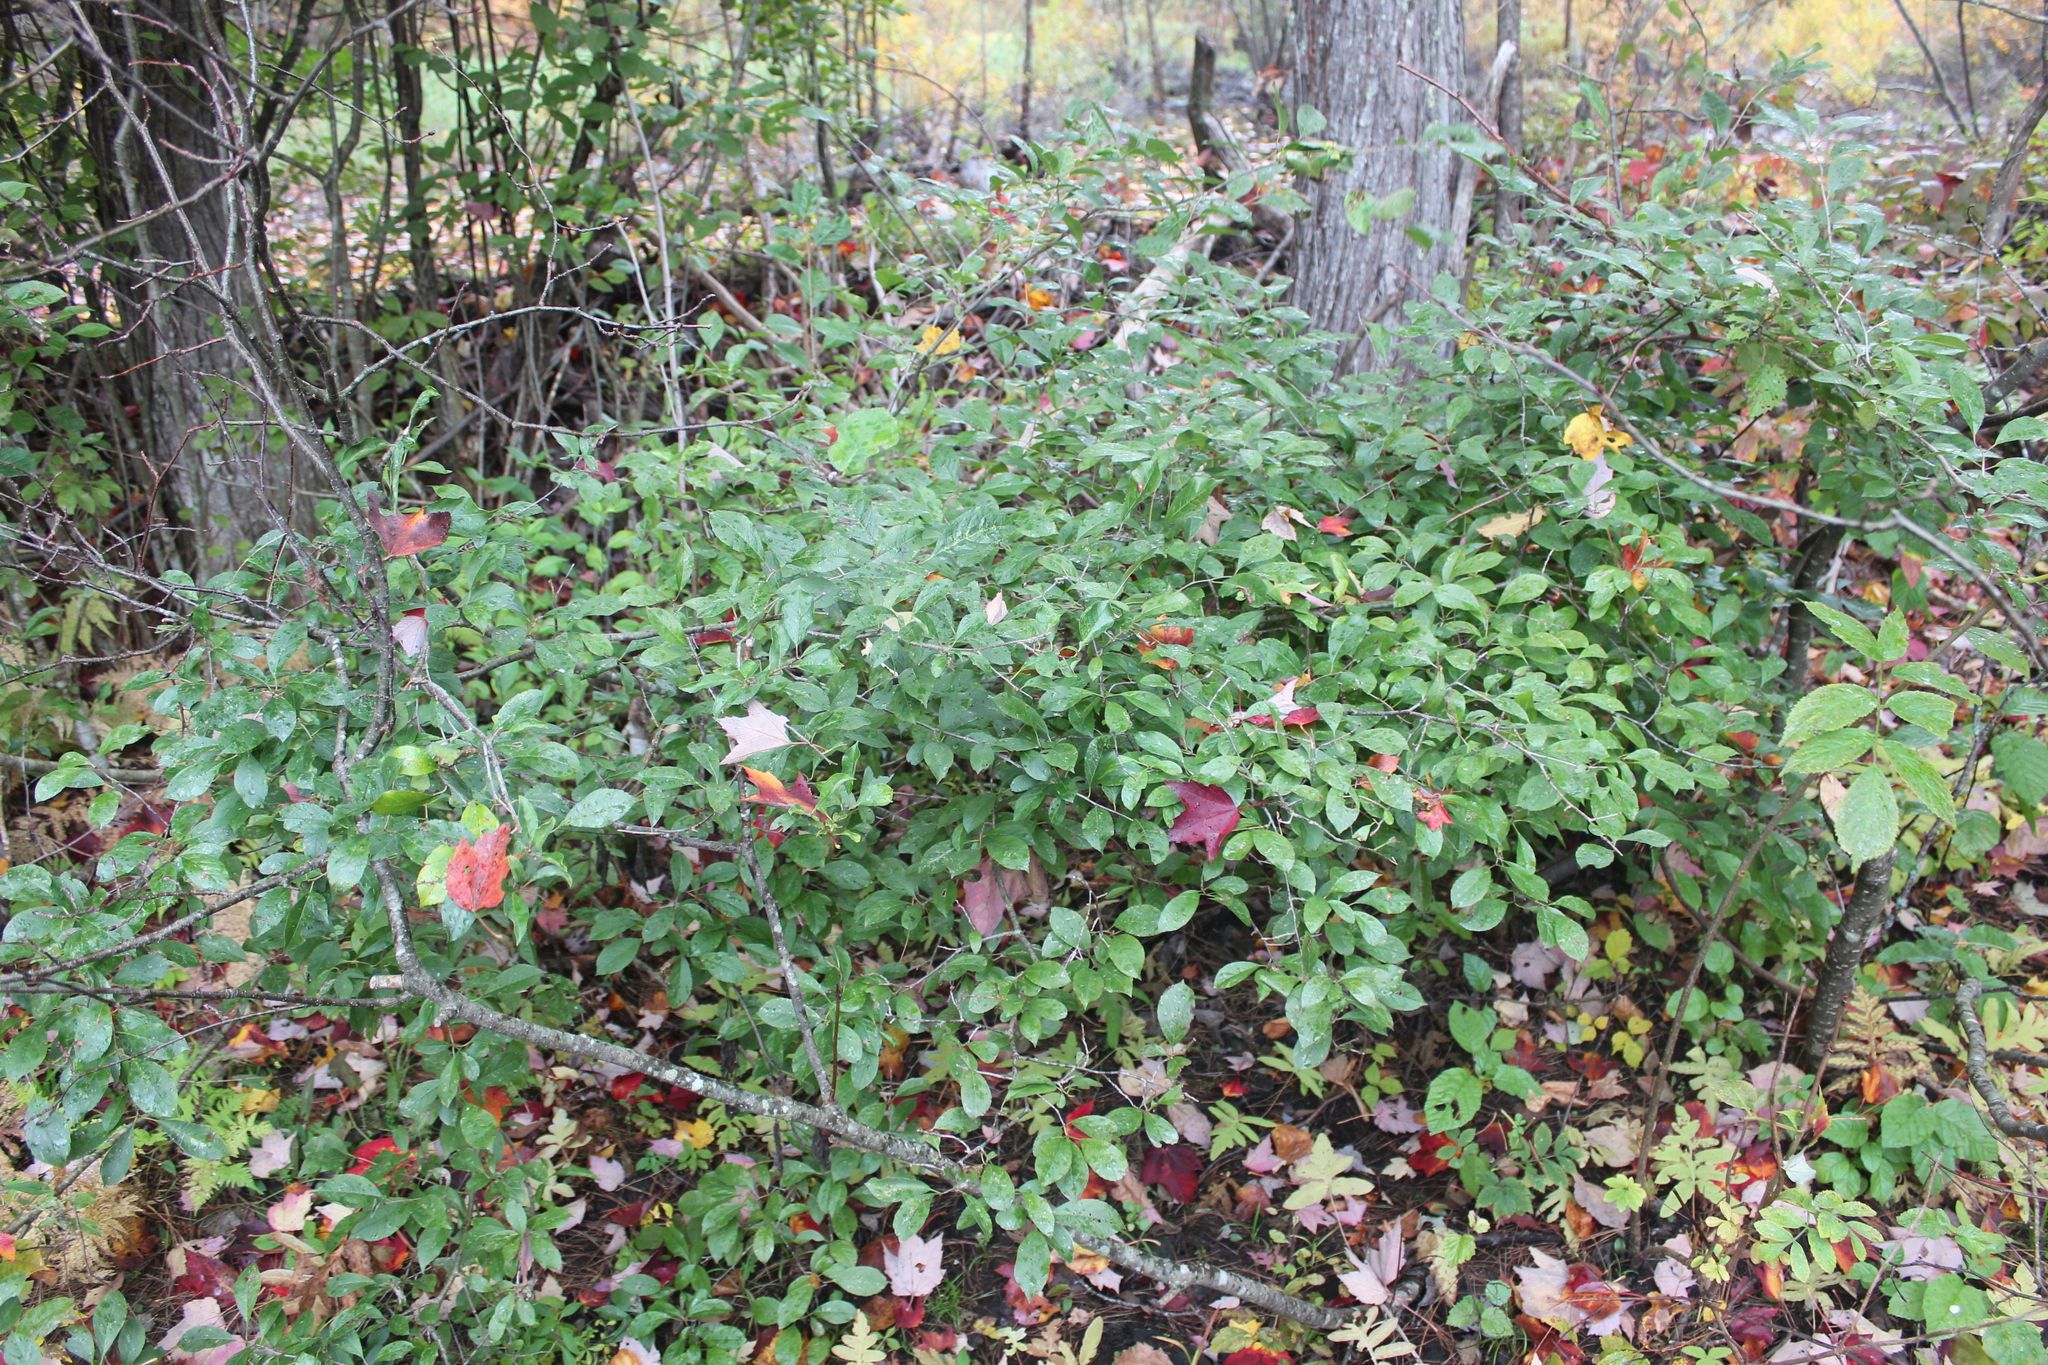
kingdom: Plantae
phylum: Tracheophyta
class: Magnoliopsida
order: Aquifoliales
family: Aquifoliaceae
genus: Ilex
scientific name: Ilex verticillata
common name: Virginia winterberry
